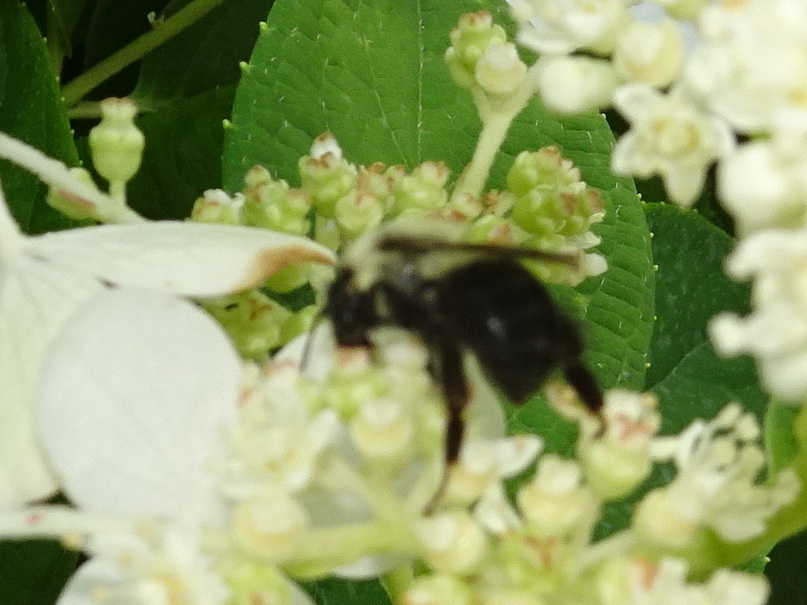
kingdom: Animalia
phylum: Arthropoda
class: Insecta
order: Hymenoptera
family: Apidae
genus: Bombus
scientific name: Bombus impatiens
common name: Common eastern bumble bee
